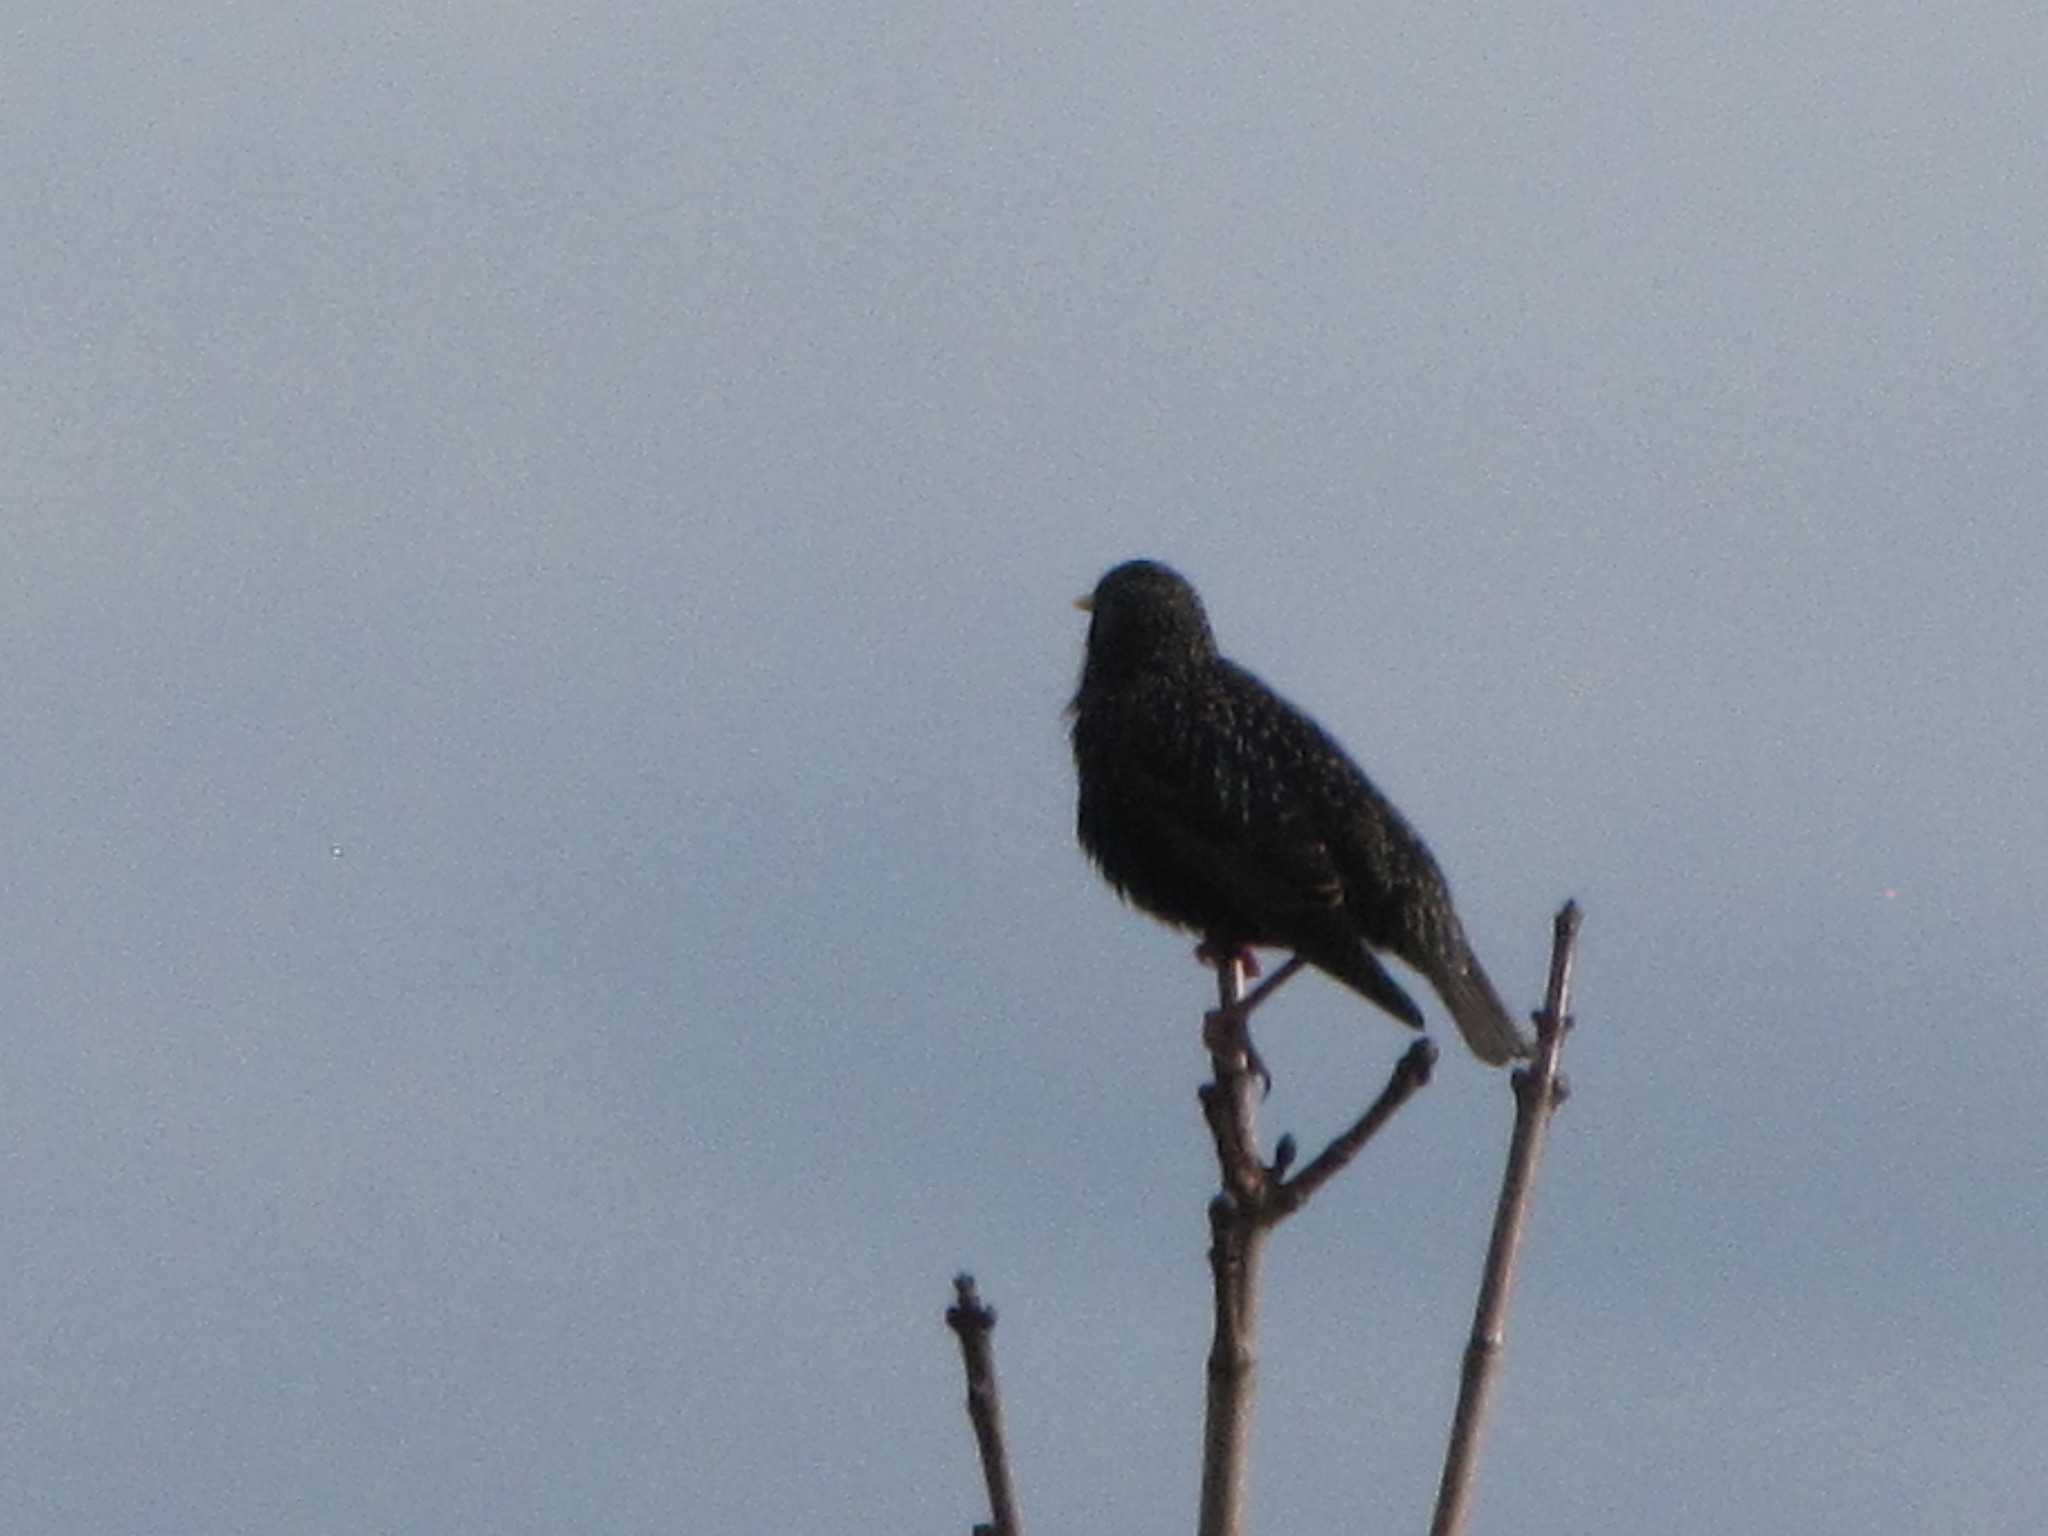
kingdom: Animalia
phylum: Chordata
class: Aves
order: Passeriformes
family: Sturnidae
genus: Sturnus
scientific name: Sturnus vulgaris
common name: Common starling
